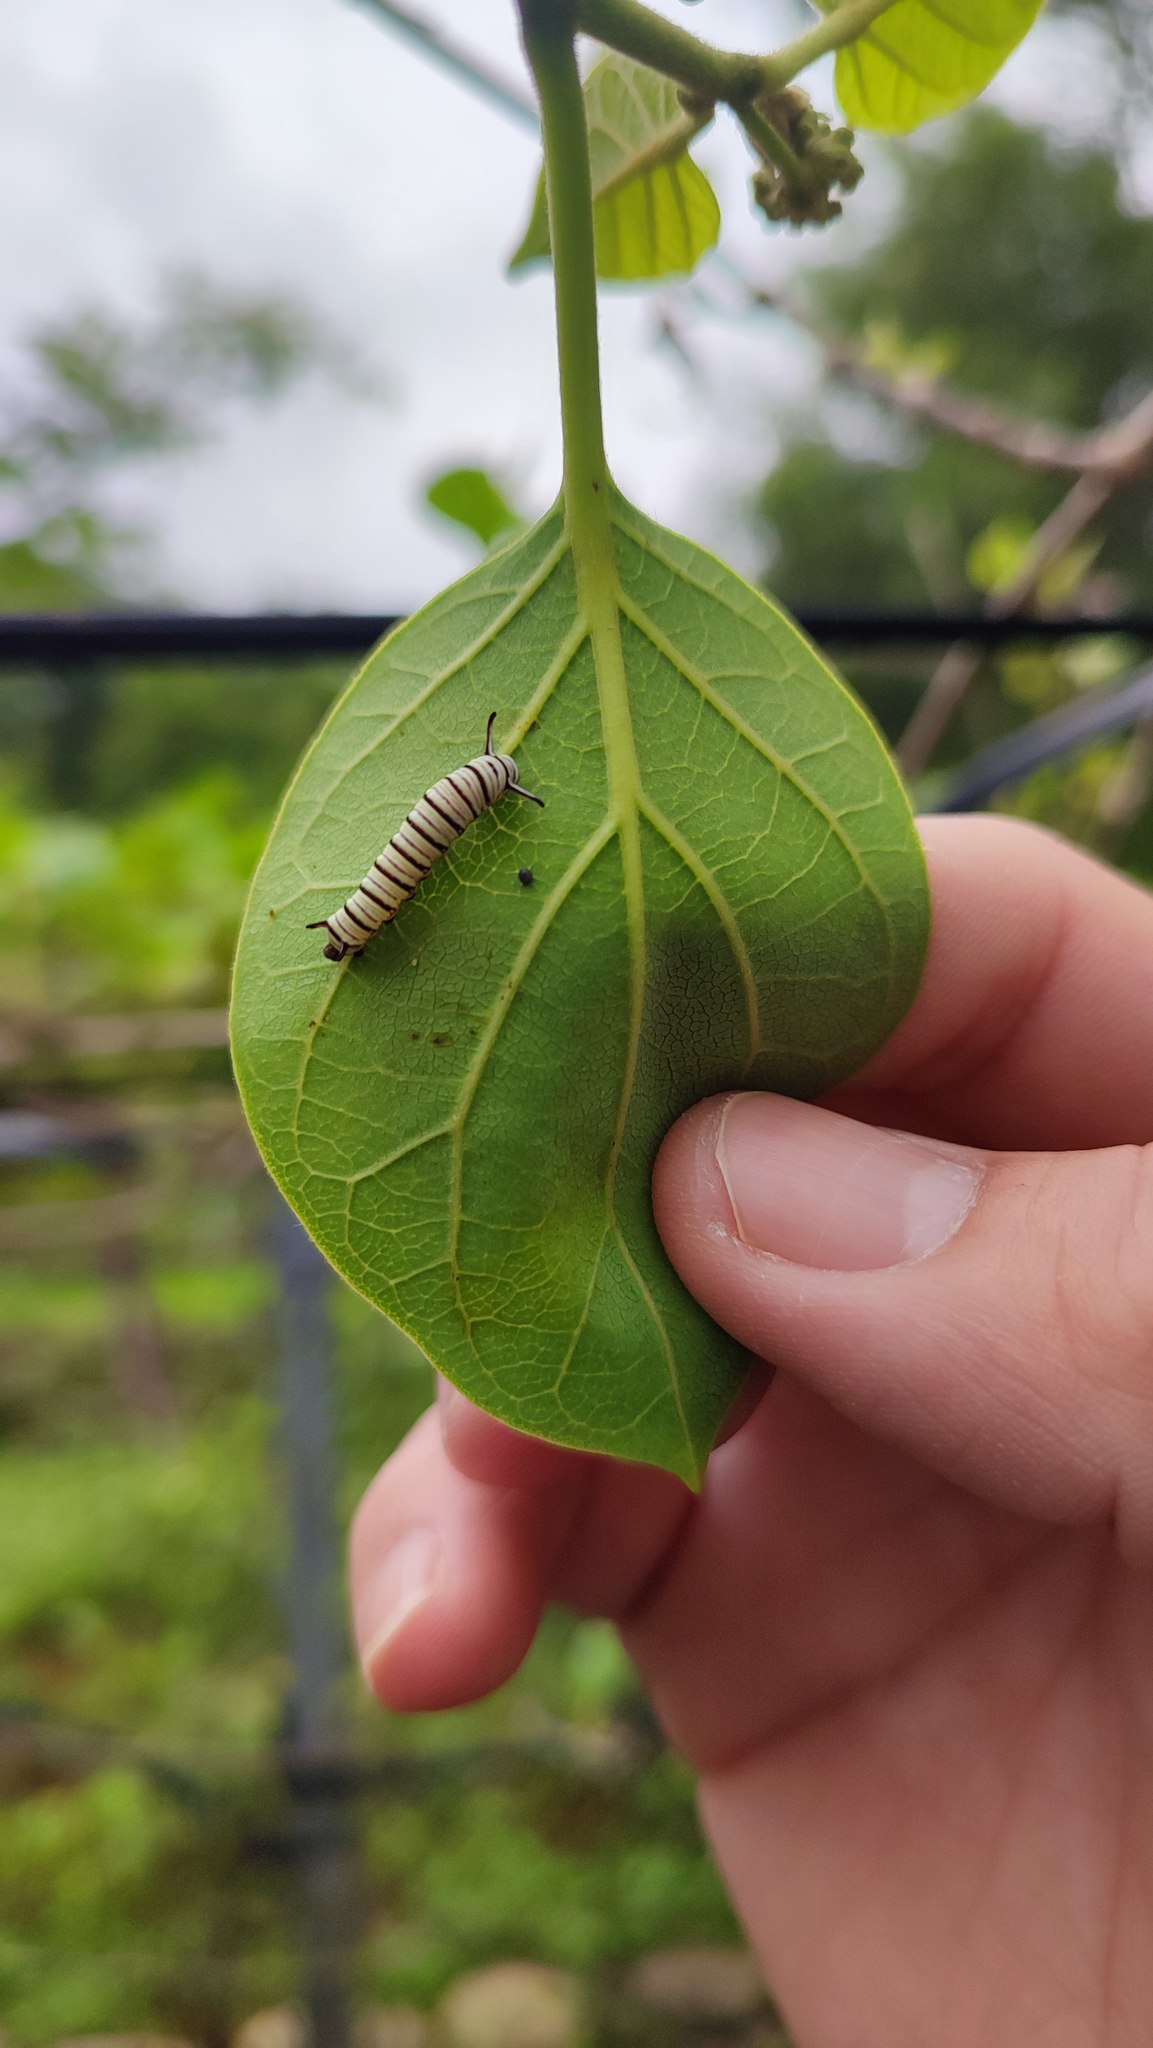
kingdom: Animalia
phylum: Arthropoda
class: Insecta
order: Lepidoptera
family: Nymphalidae
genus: Tirumala
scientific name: Tirumala limniace
